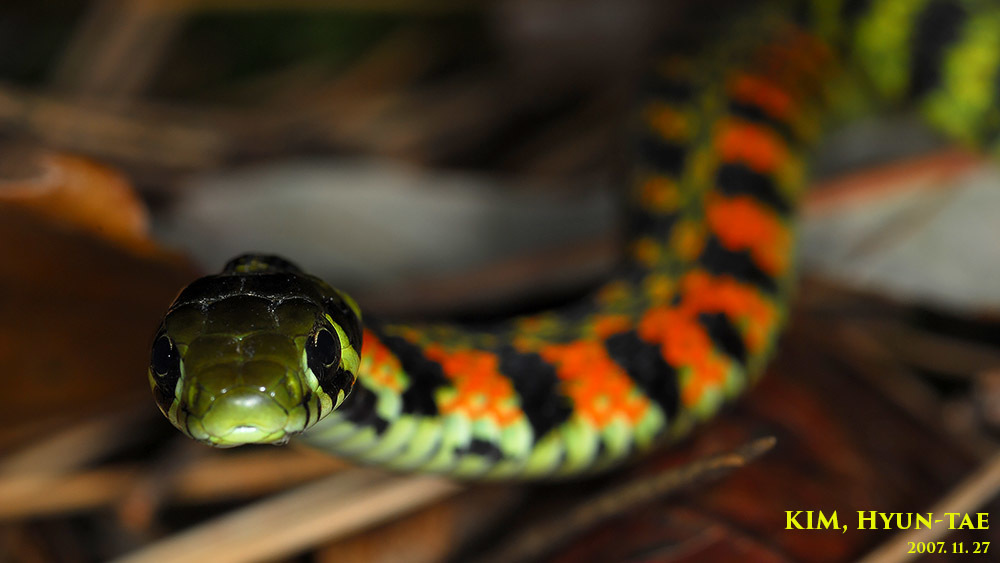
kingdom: Animalia
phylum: Chordata
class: Squamata
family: Colubridae
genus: Rhabdophis
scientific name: Rhabdophis tigrinus
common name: Tiger keelback
